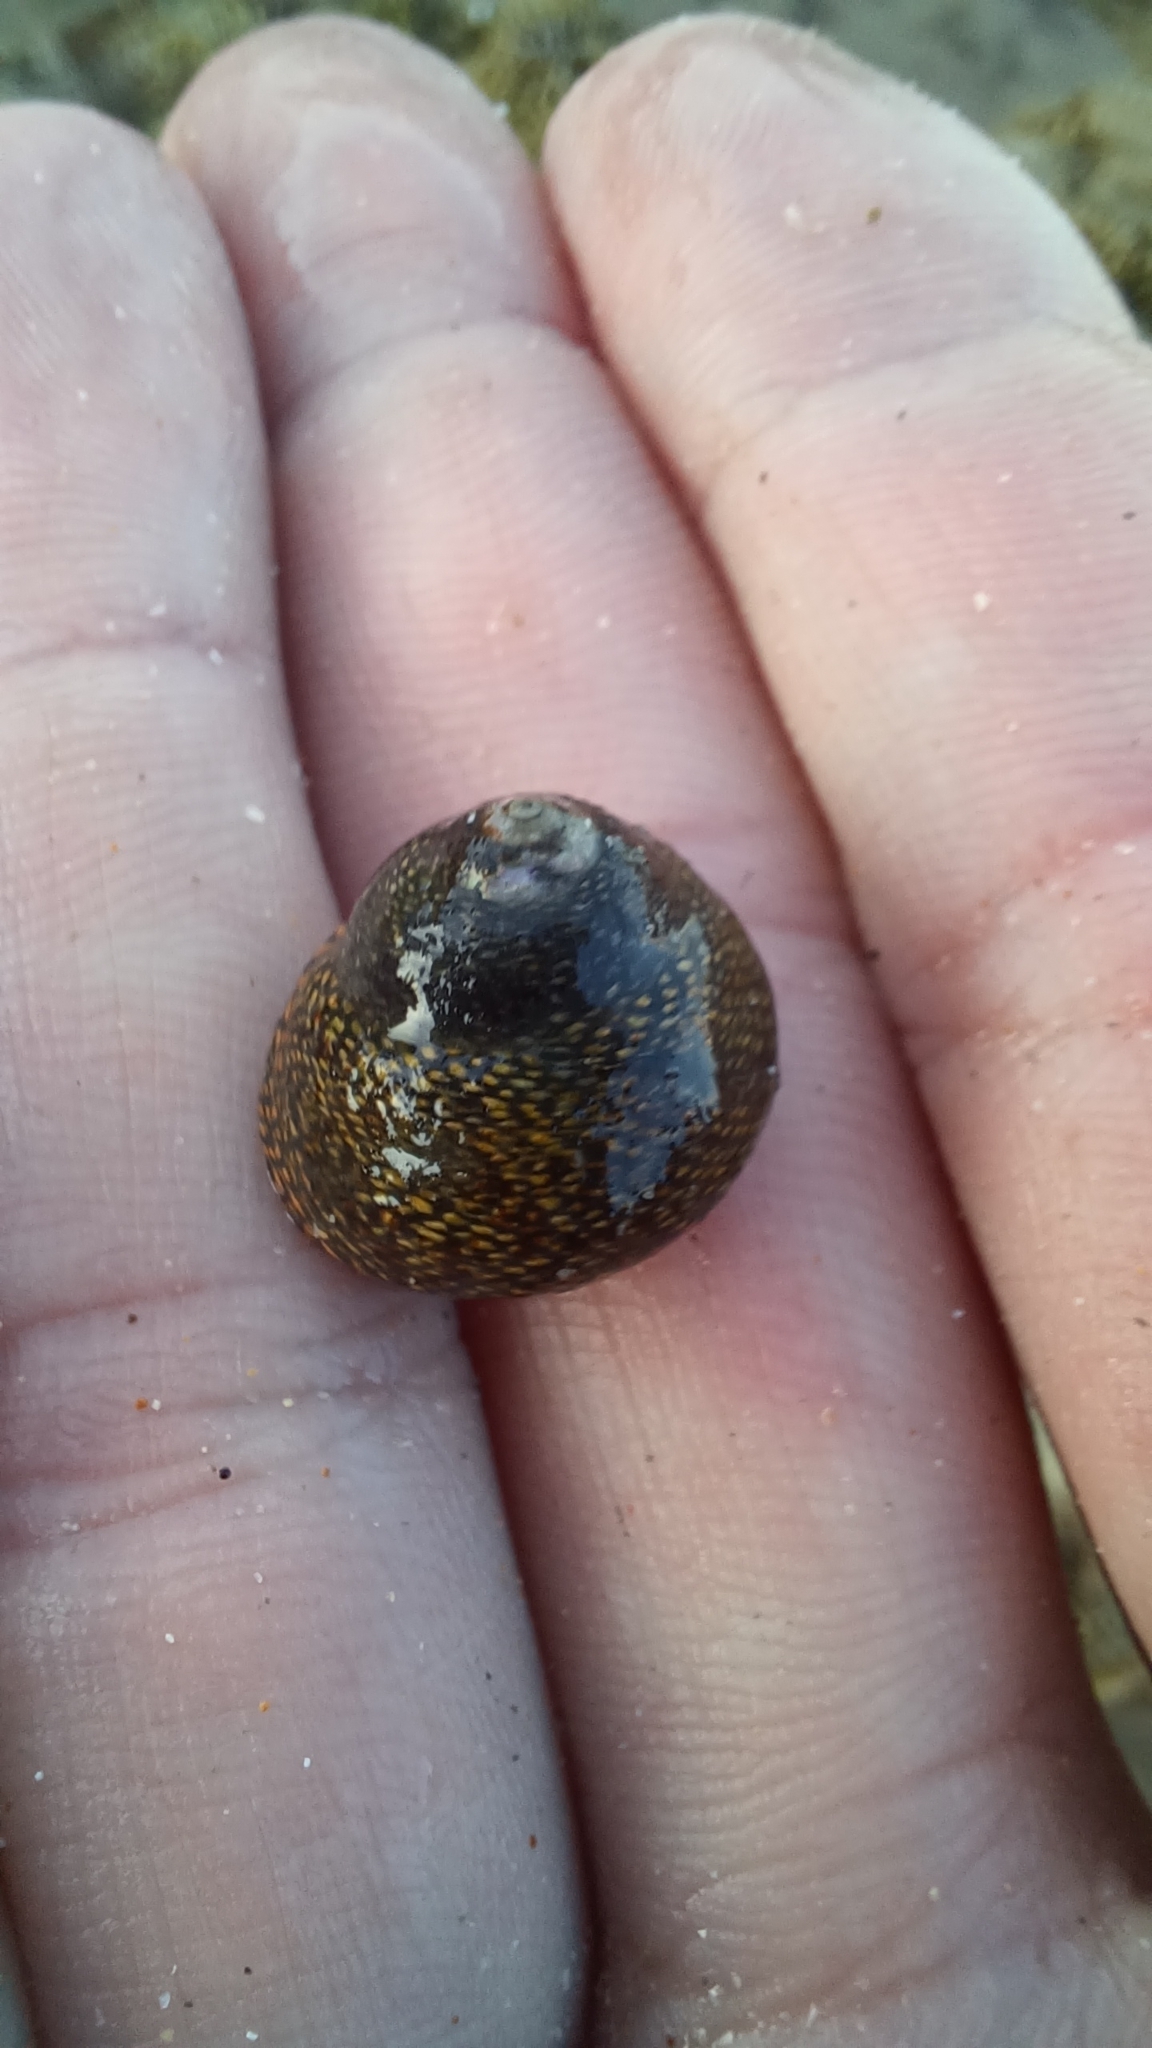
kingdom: Animalia
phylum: Mollusca
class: Gastropoda
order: Trochida
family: Trochidae
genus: Chlorodiloma
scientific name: Chlorodiloma odontis
